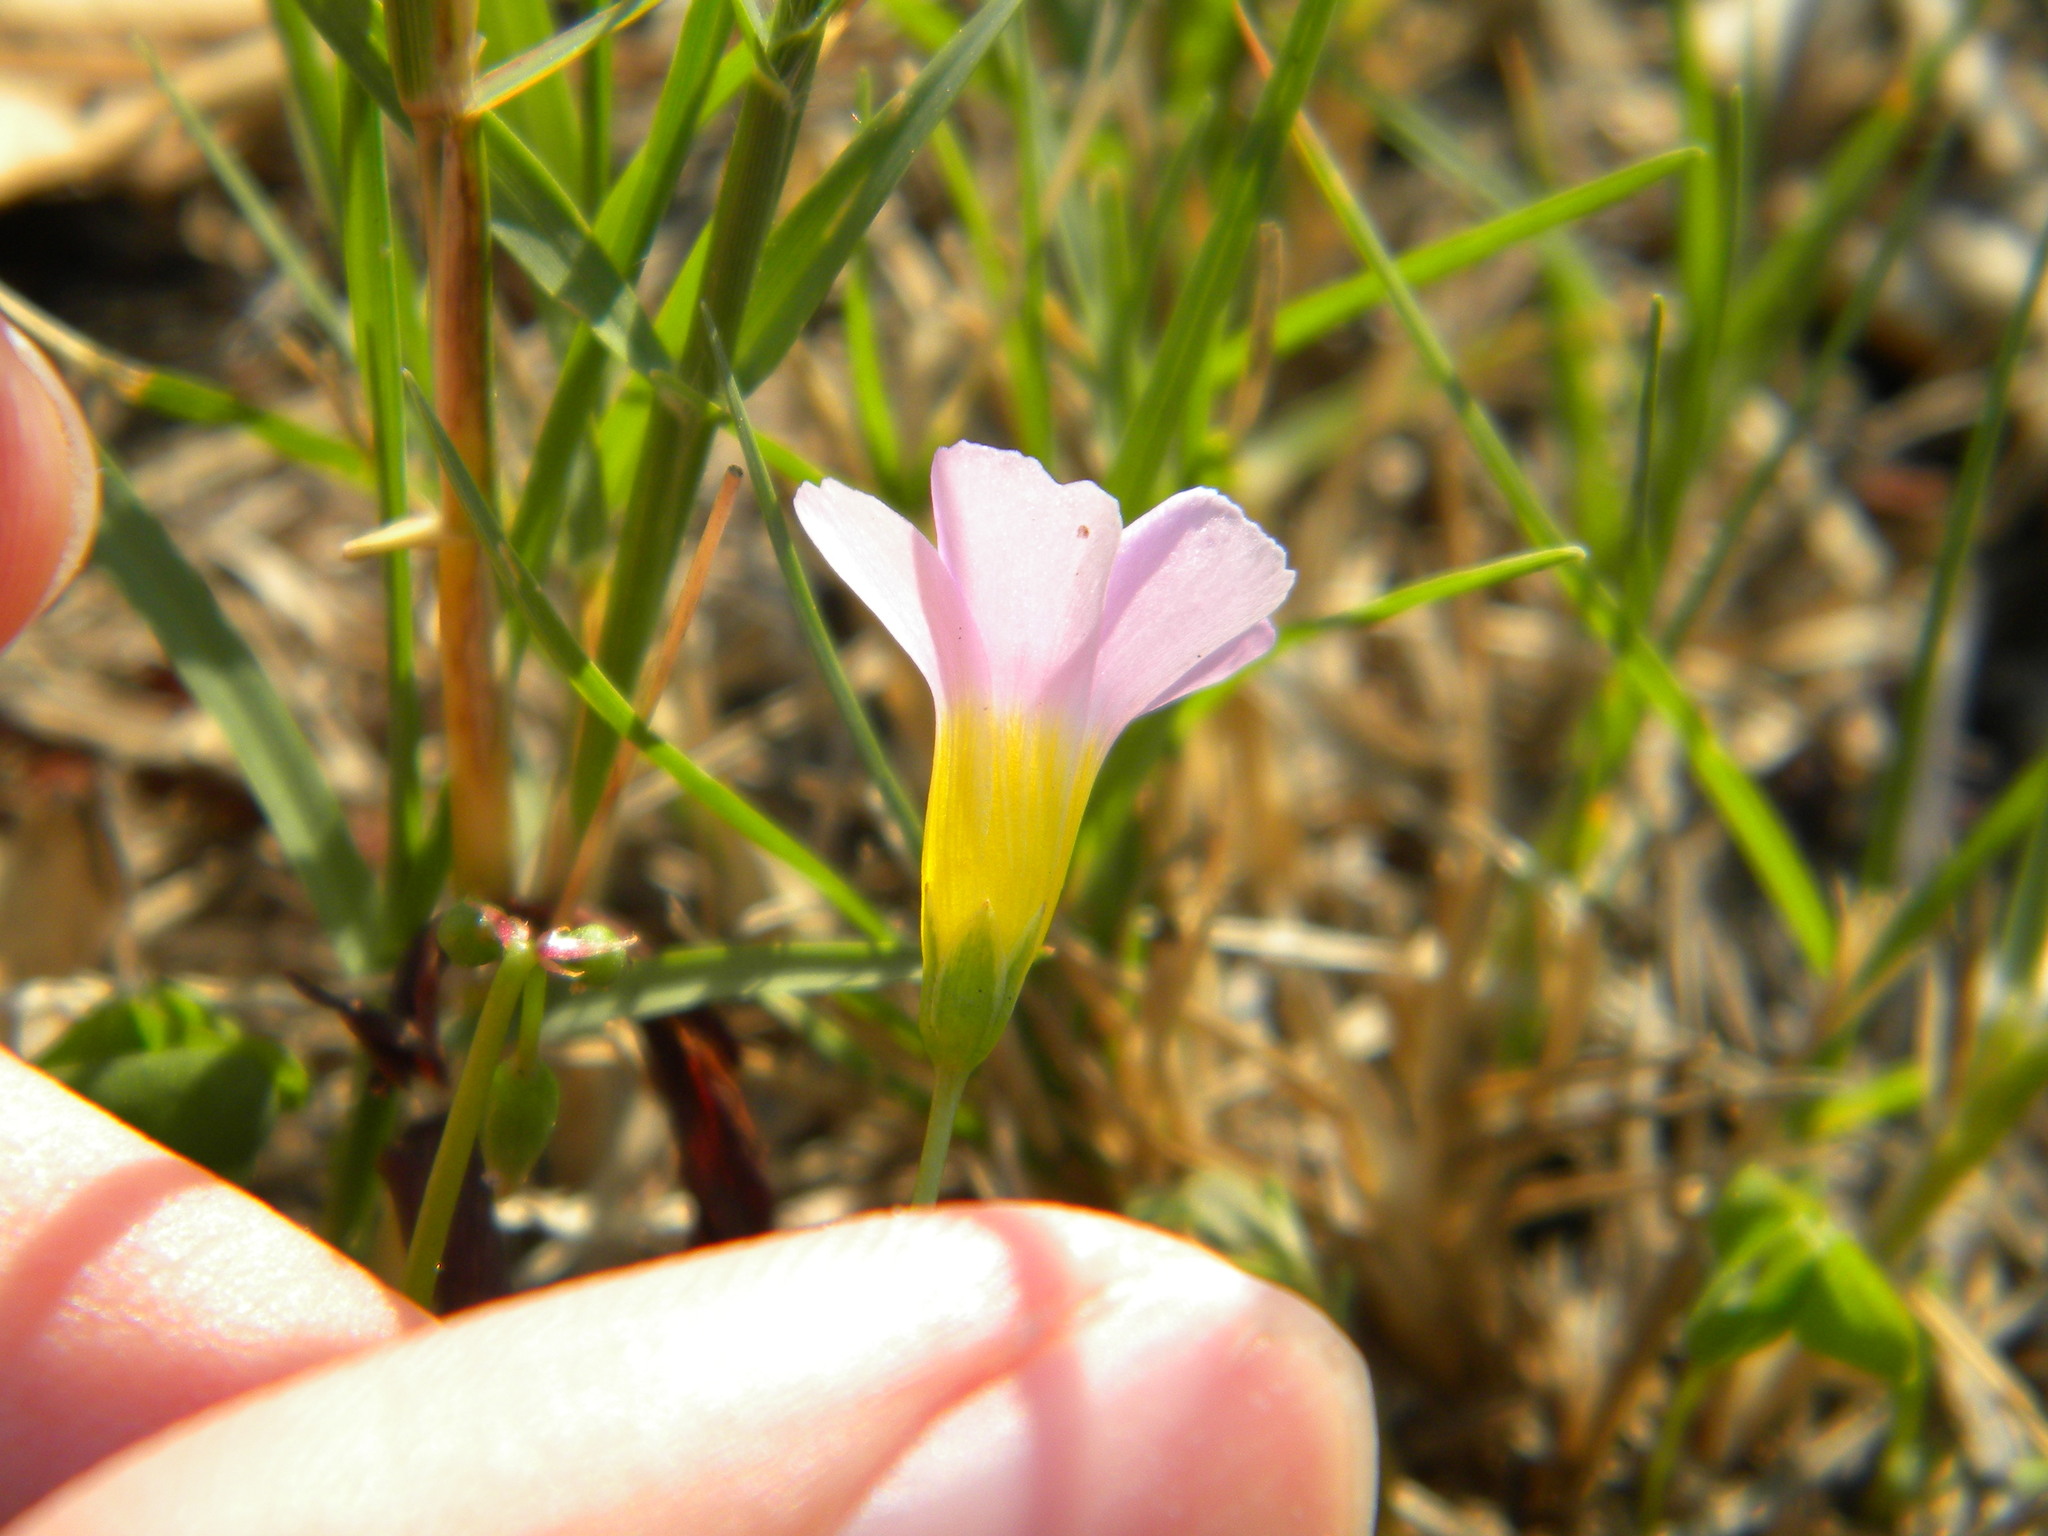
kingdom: Plantae
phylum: Tracheophyta
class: Magnoliopsida
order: Oxalidales
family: Oxalidaceae
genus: Oxalis
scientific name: Oxalis caprina
